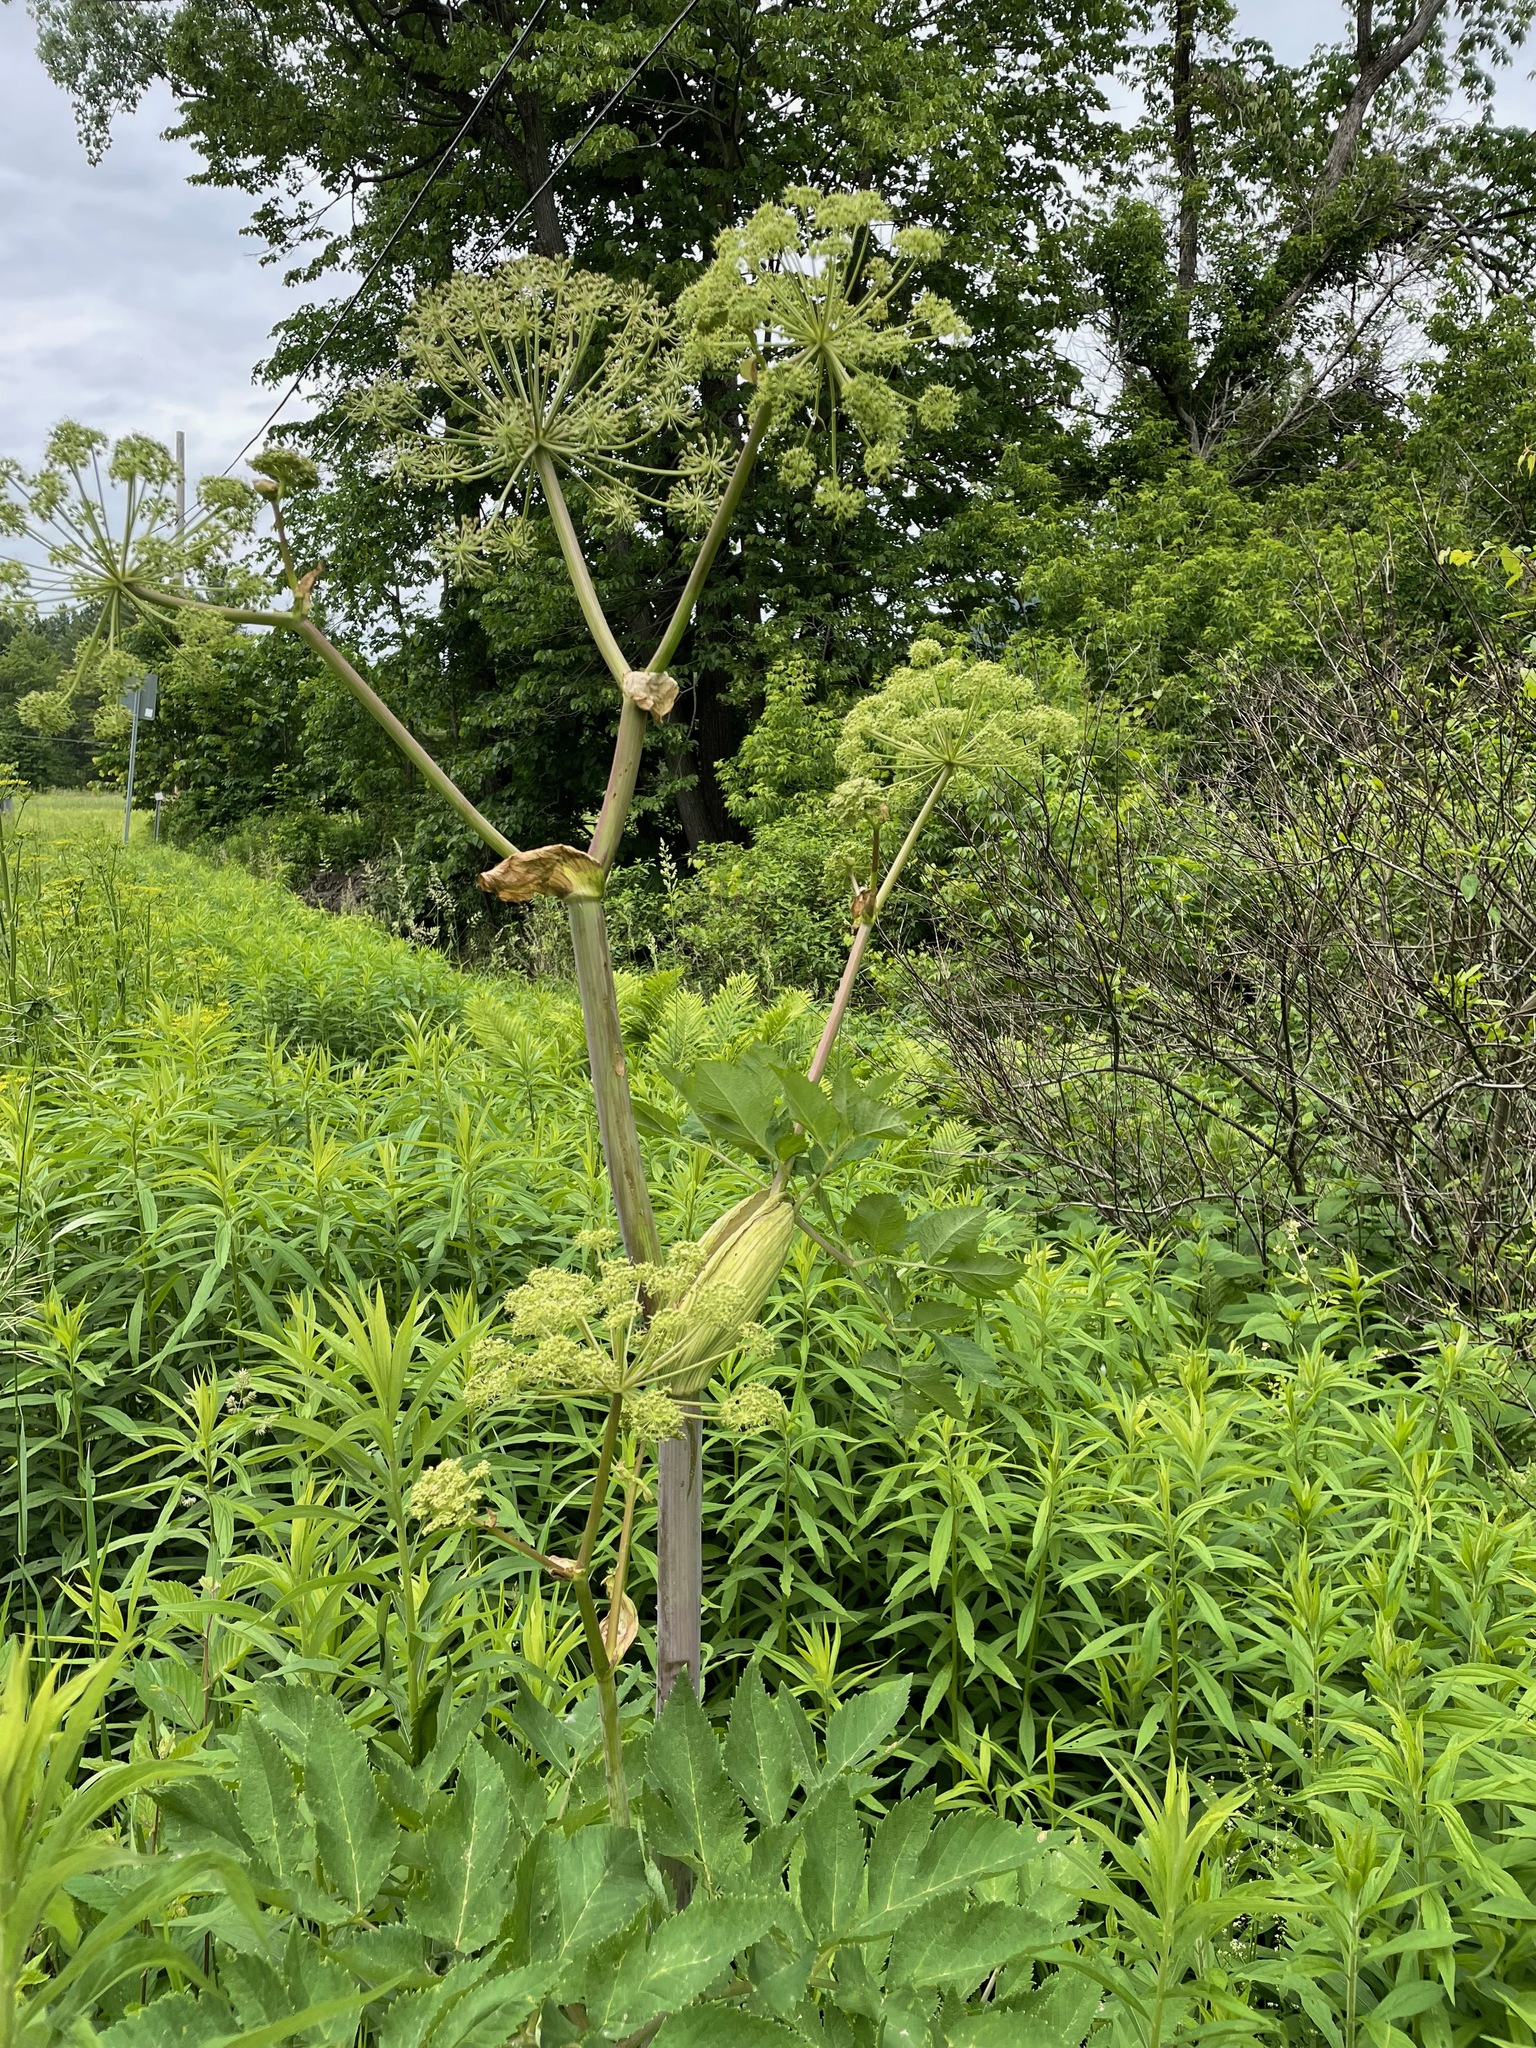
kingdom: Plantae
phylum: Tracheophyta
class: Magnoliopsida
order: Apiales
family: Apiaceae
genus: Angelica
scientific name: Angelica atropurpurea
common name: Great angelica
